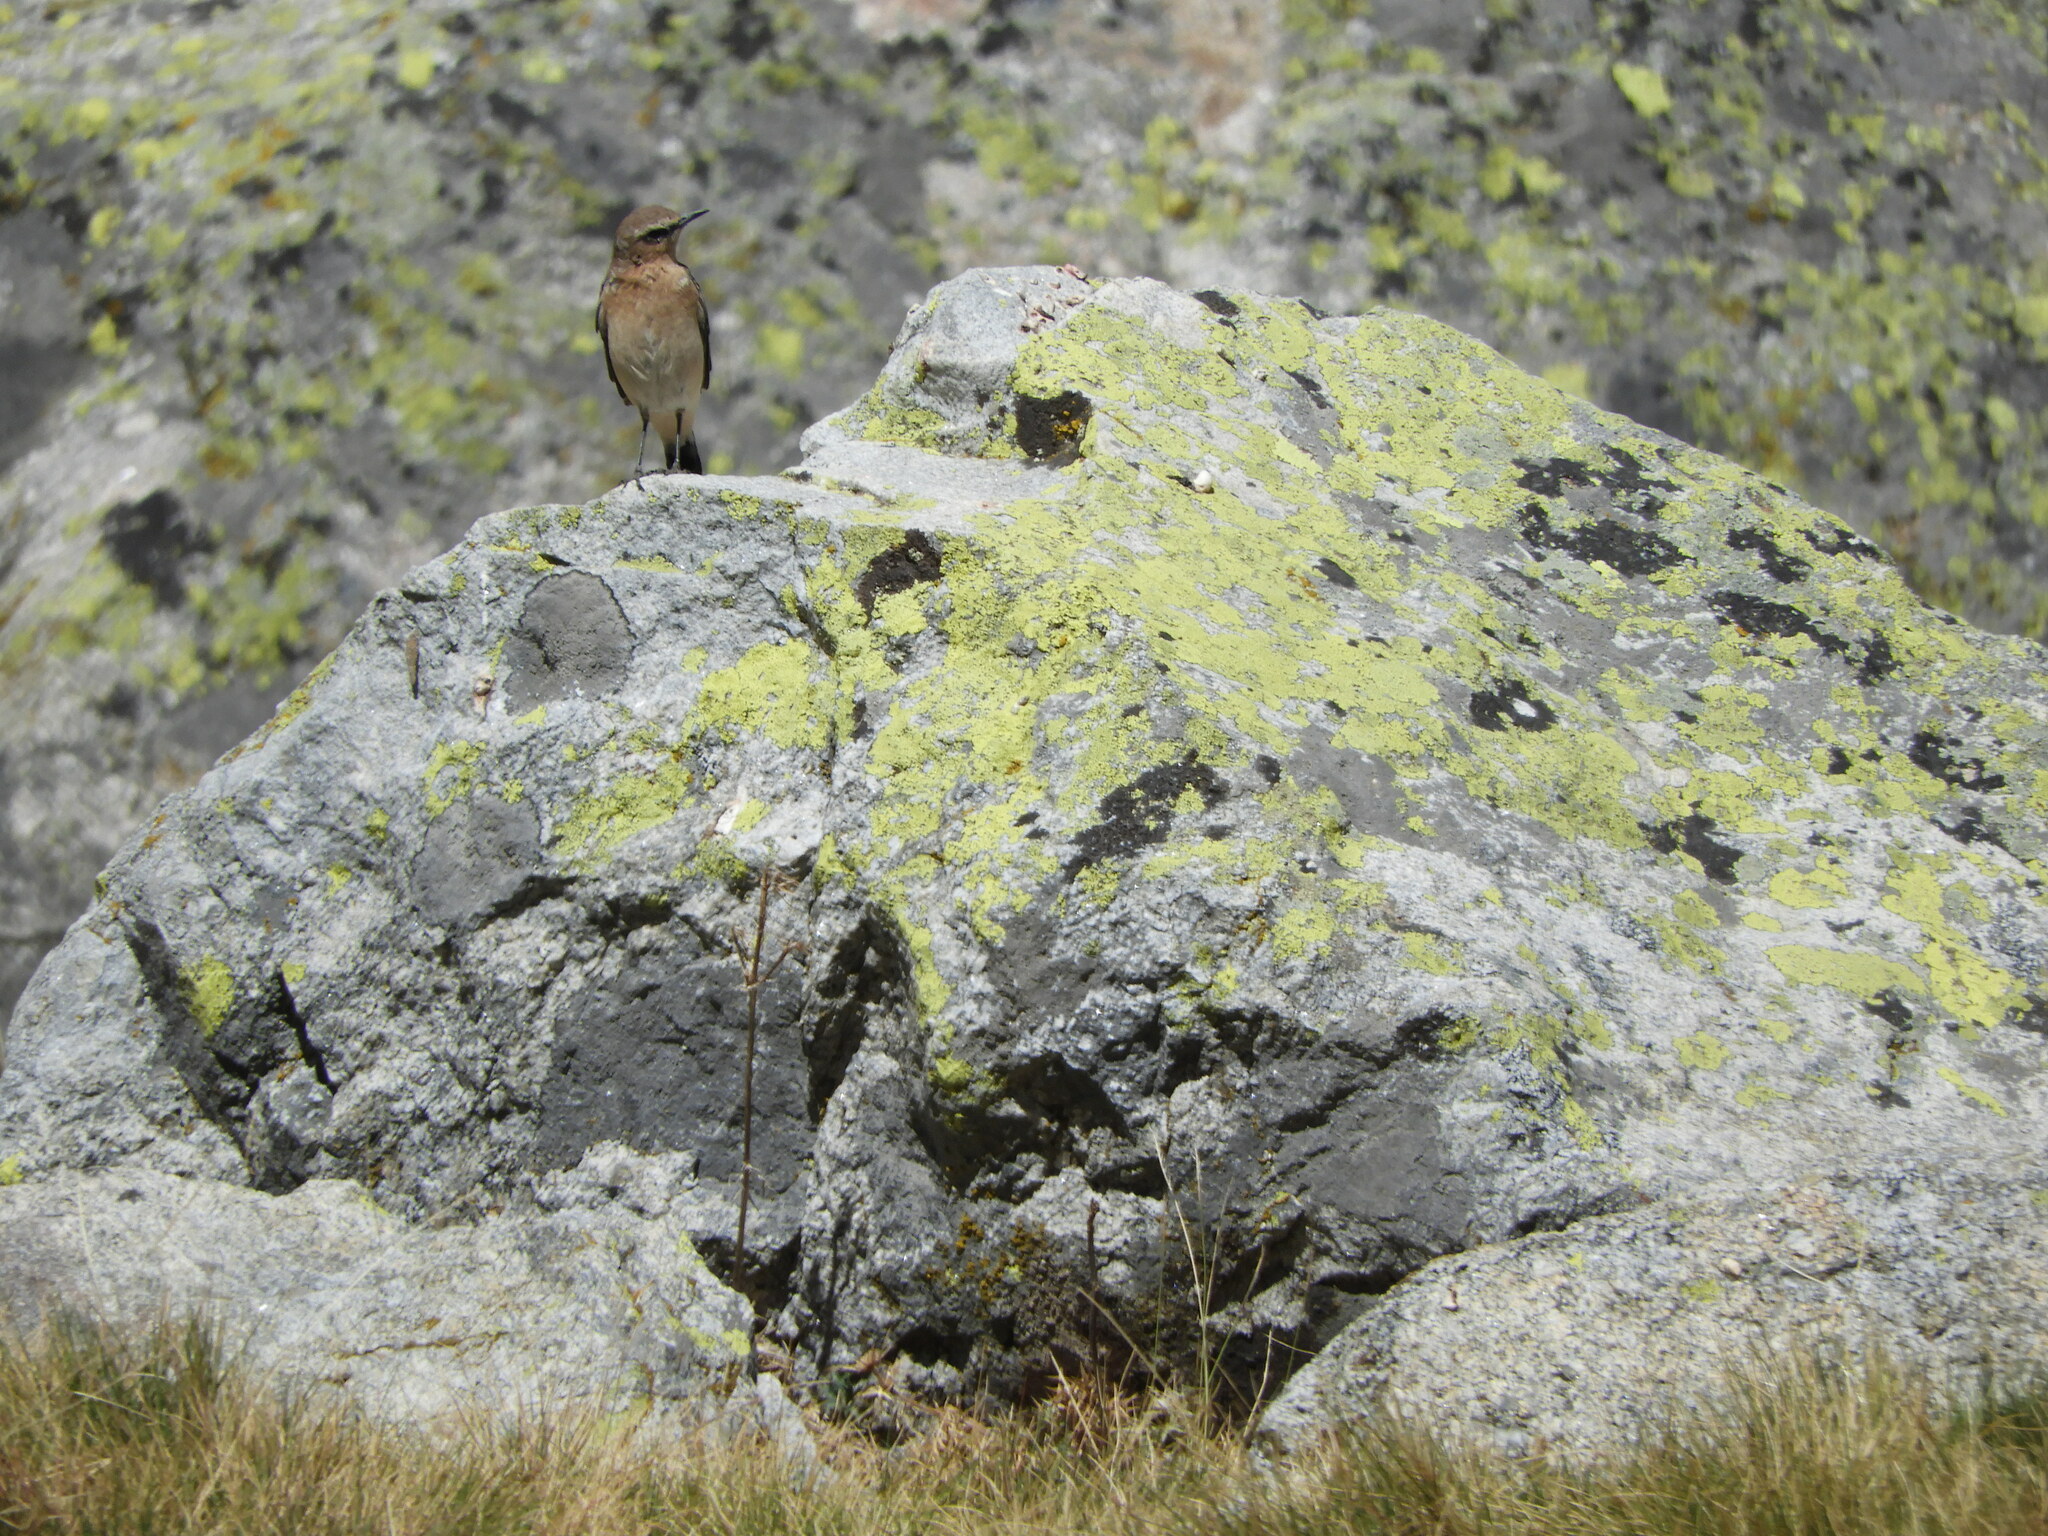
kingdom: Animalia
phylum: Chordata
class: Aves
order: Passeriformes
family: Muscicapidae
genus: Oenanthe
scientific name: Oenanthe oenanthe
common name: Northern wheatear
